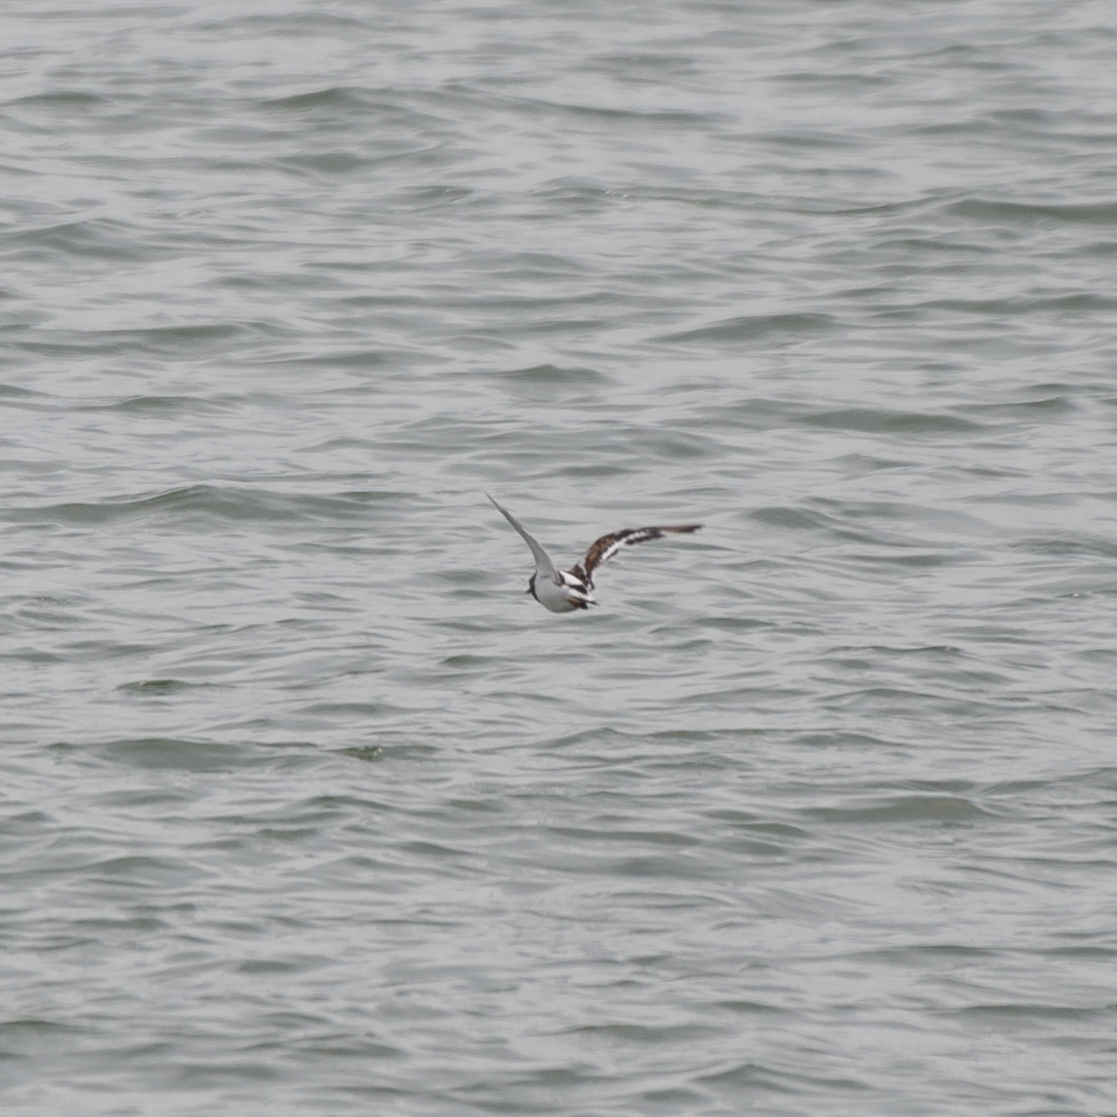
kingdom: Animalia
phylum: Chordata
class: Aves
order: Charadriiformes
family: Scolopacidae
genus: Arenaria
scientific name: Arenaria interpres
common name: Ruddy turnstone
